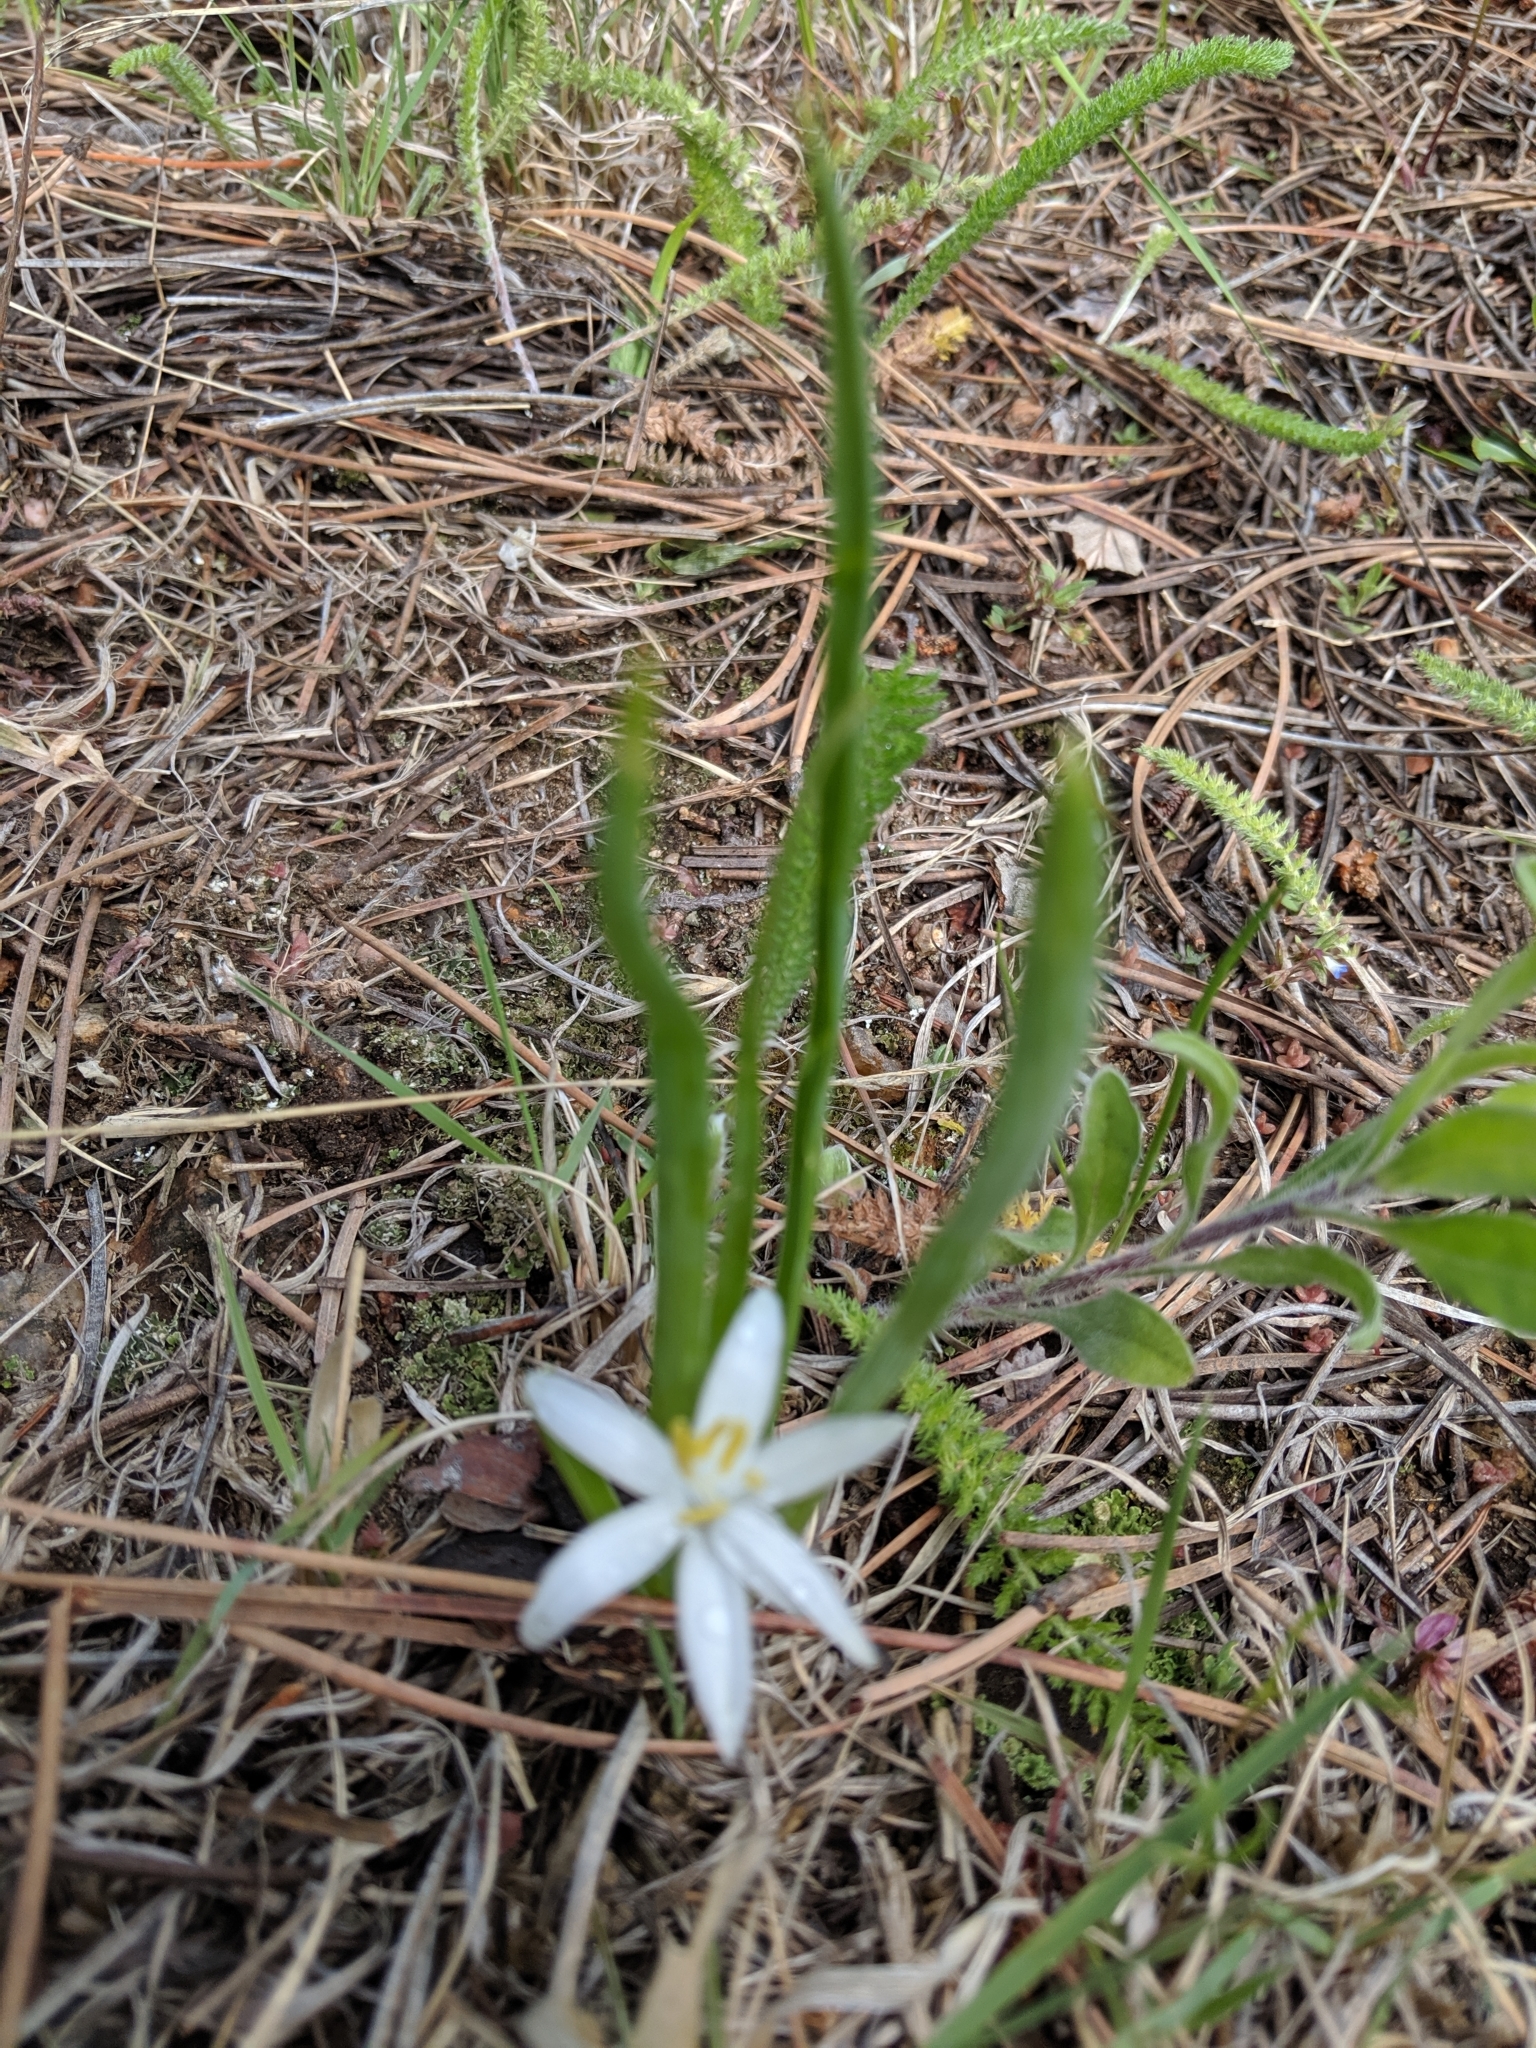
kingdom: Plantae
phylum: Tracheophyta
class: Liliopsida
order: Asparagales
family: Asparagaceae
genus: Leucocrinum
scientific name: Leucocrinum montanum
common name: Mountain-lily
